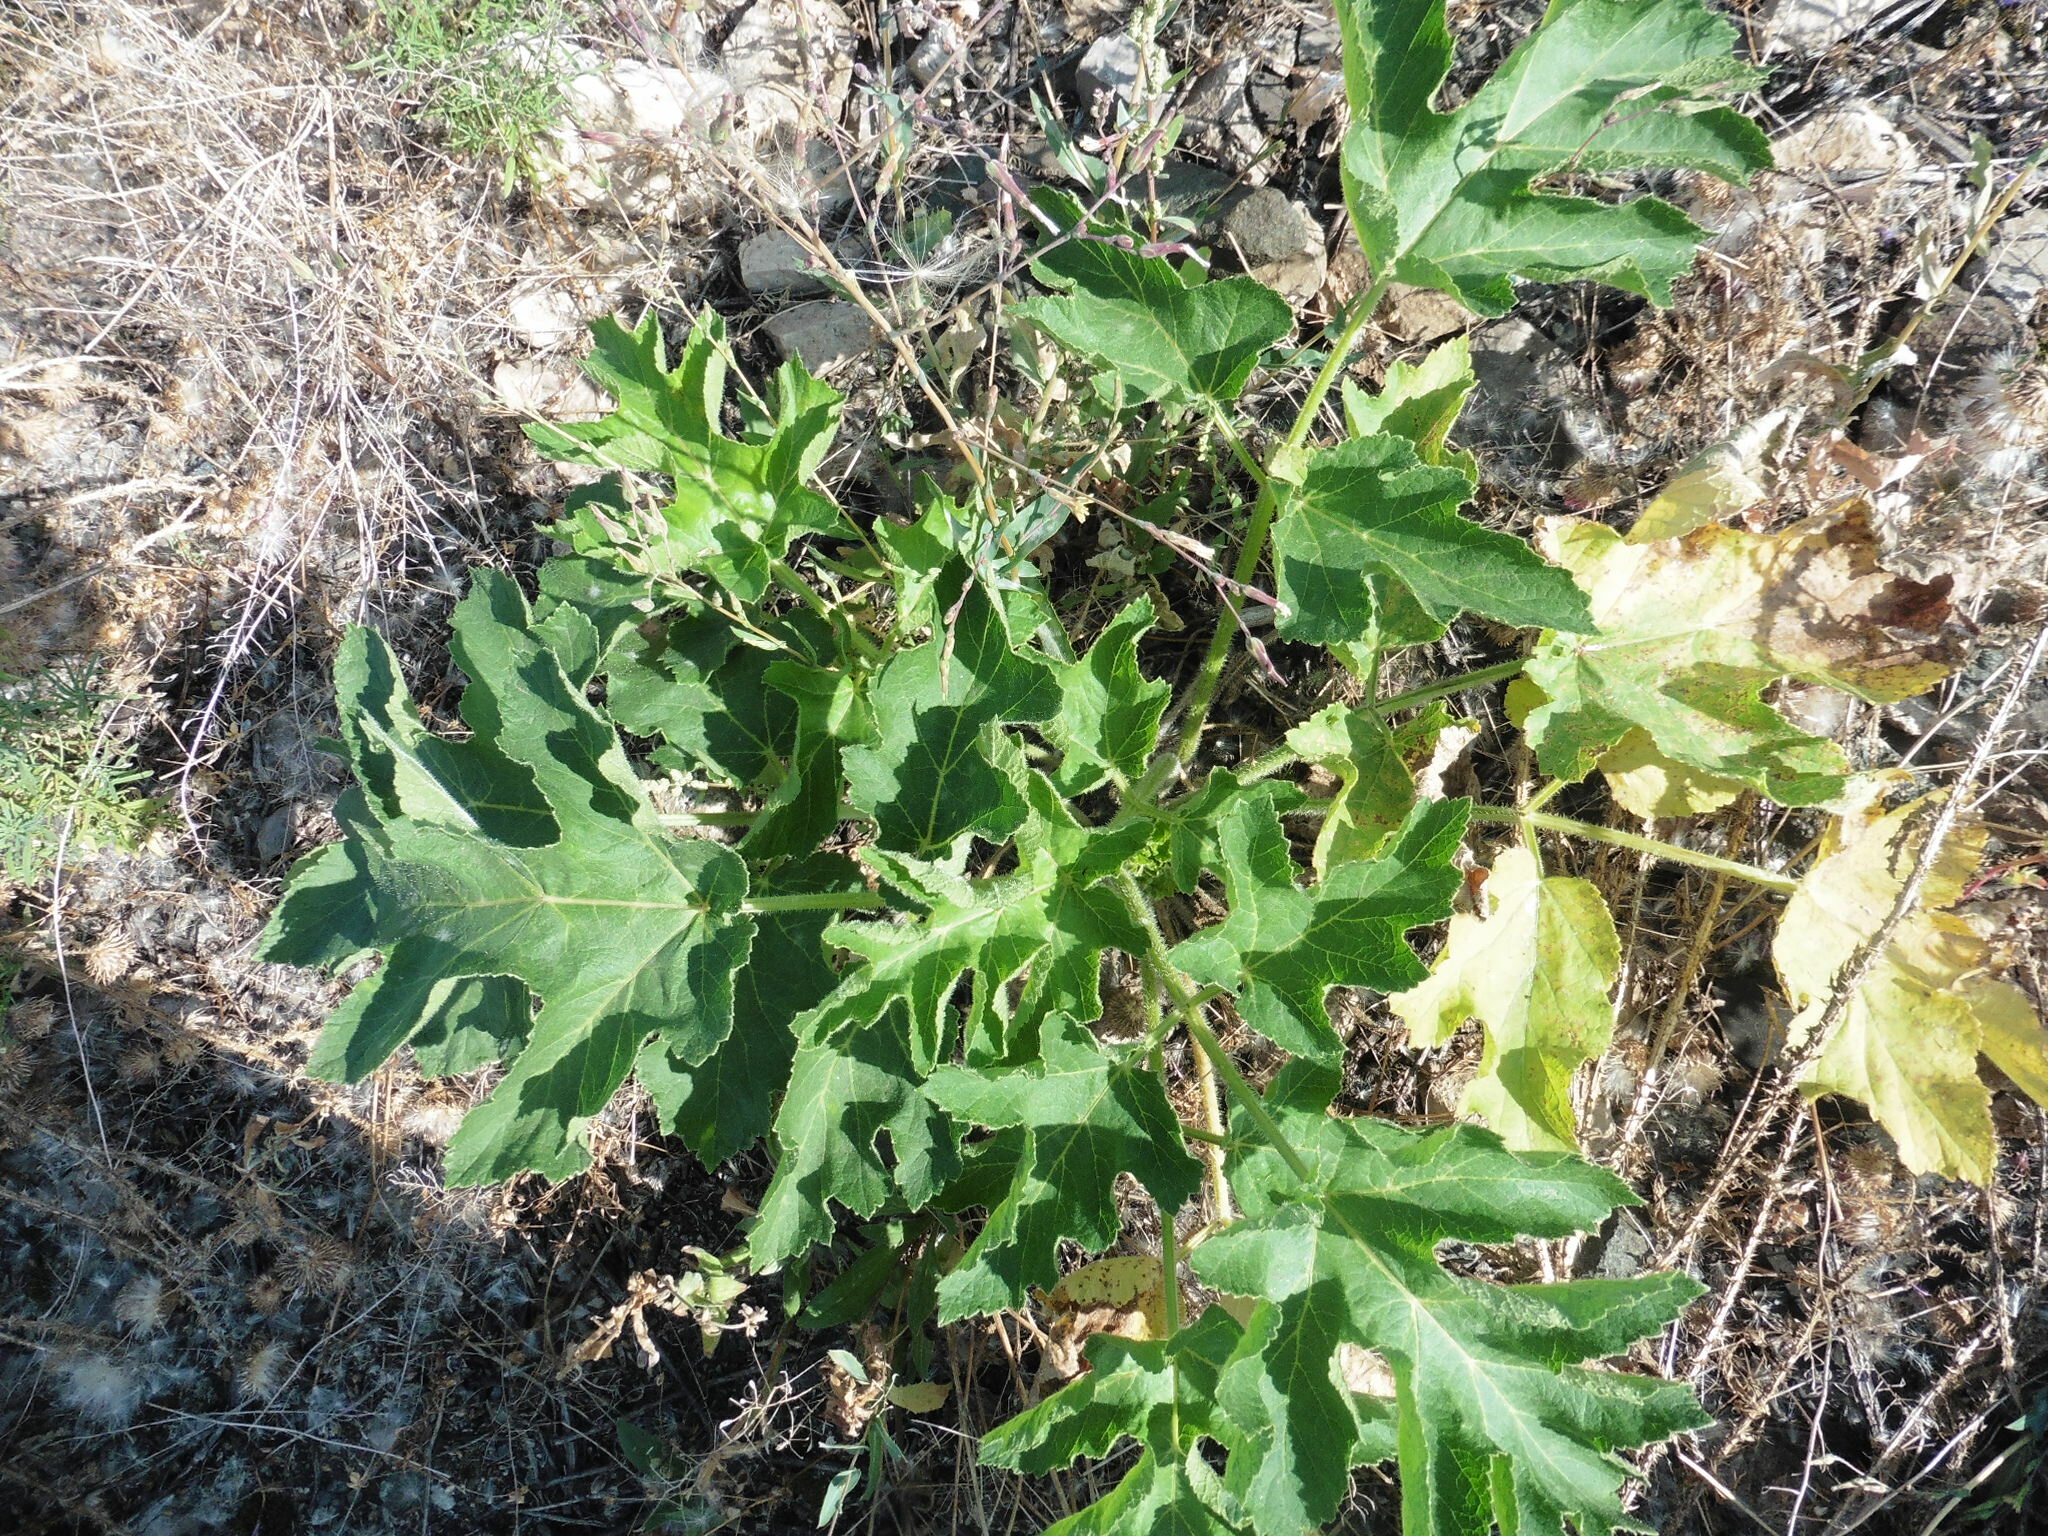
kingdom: Plantae
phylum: Tracheophyta
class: Magnoliopsida
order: Apiales
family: Apiaceae
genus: Heracleum
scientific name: Heracleum sphondylium
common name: Hogweed
